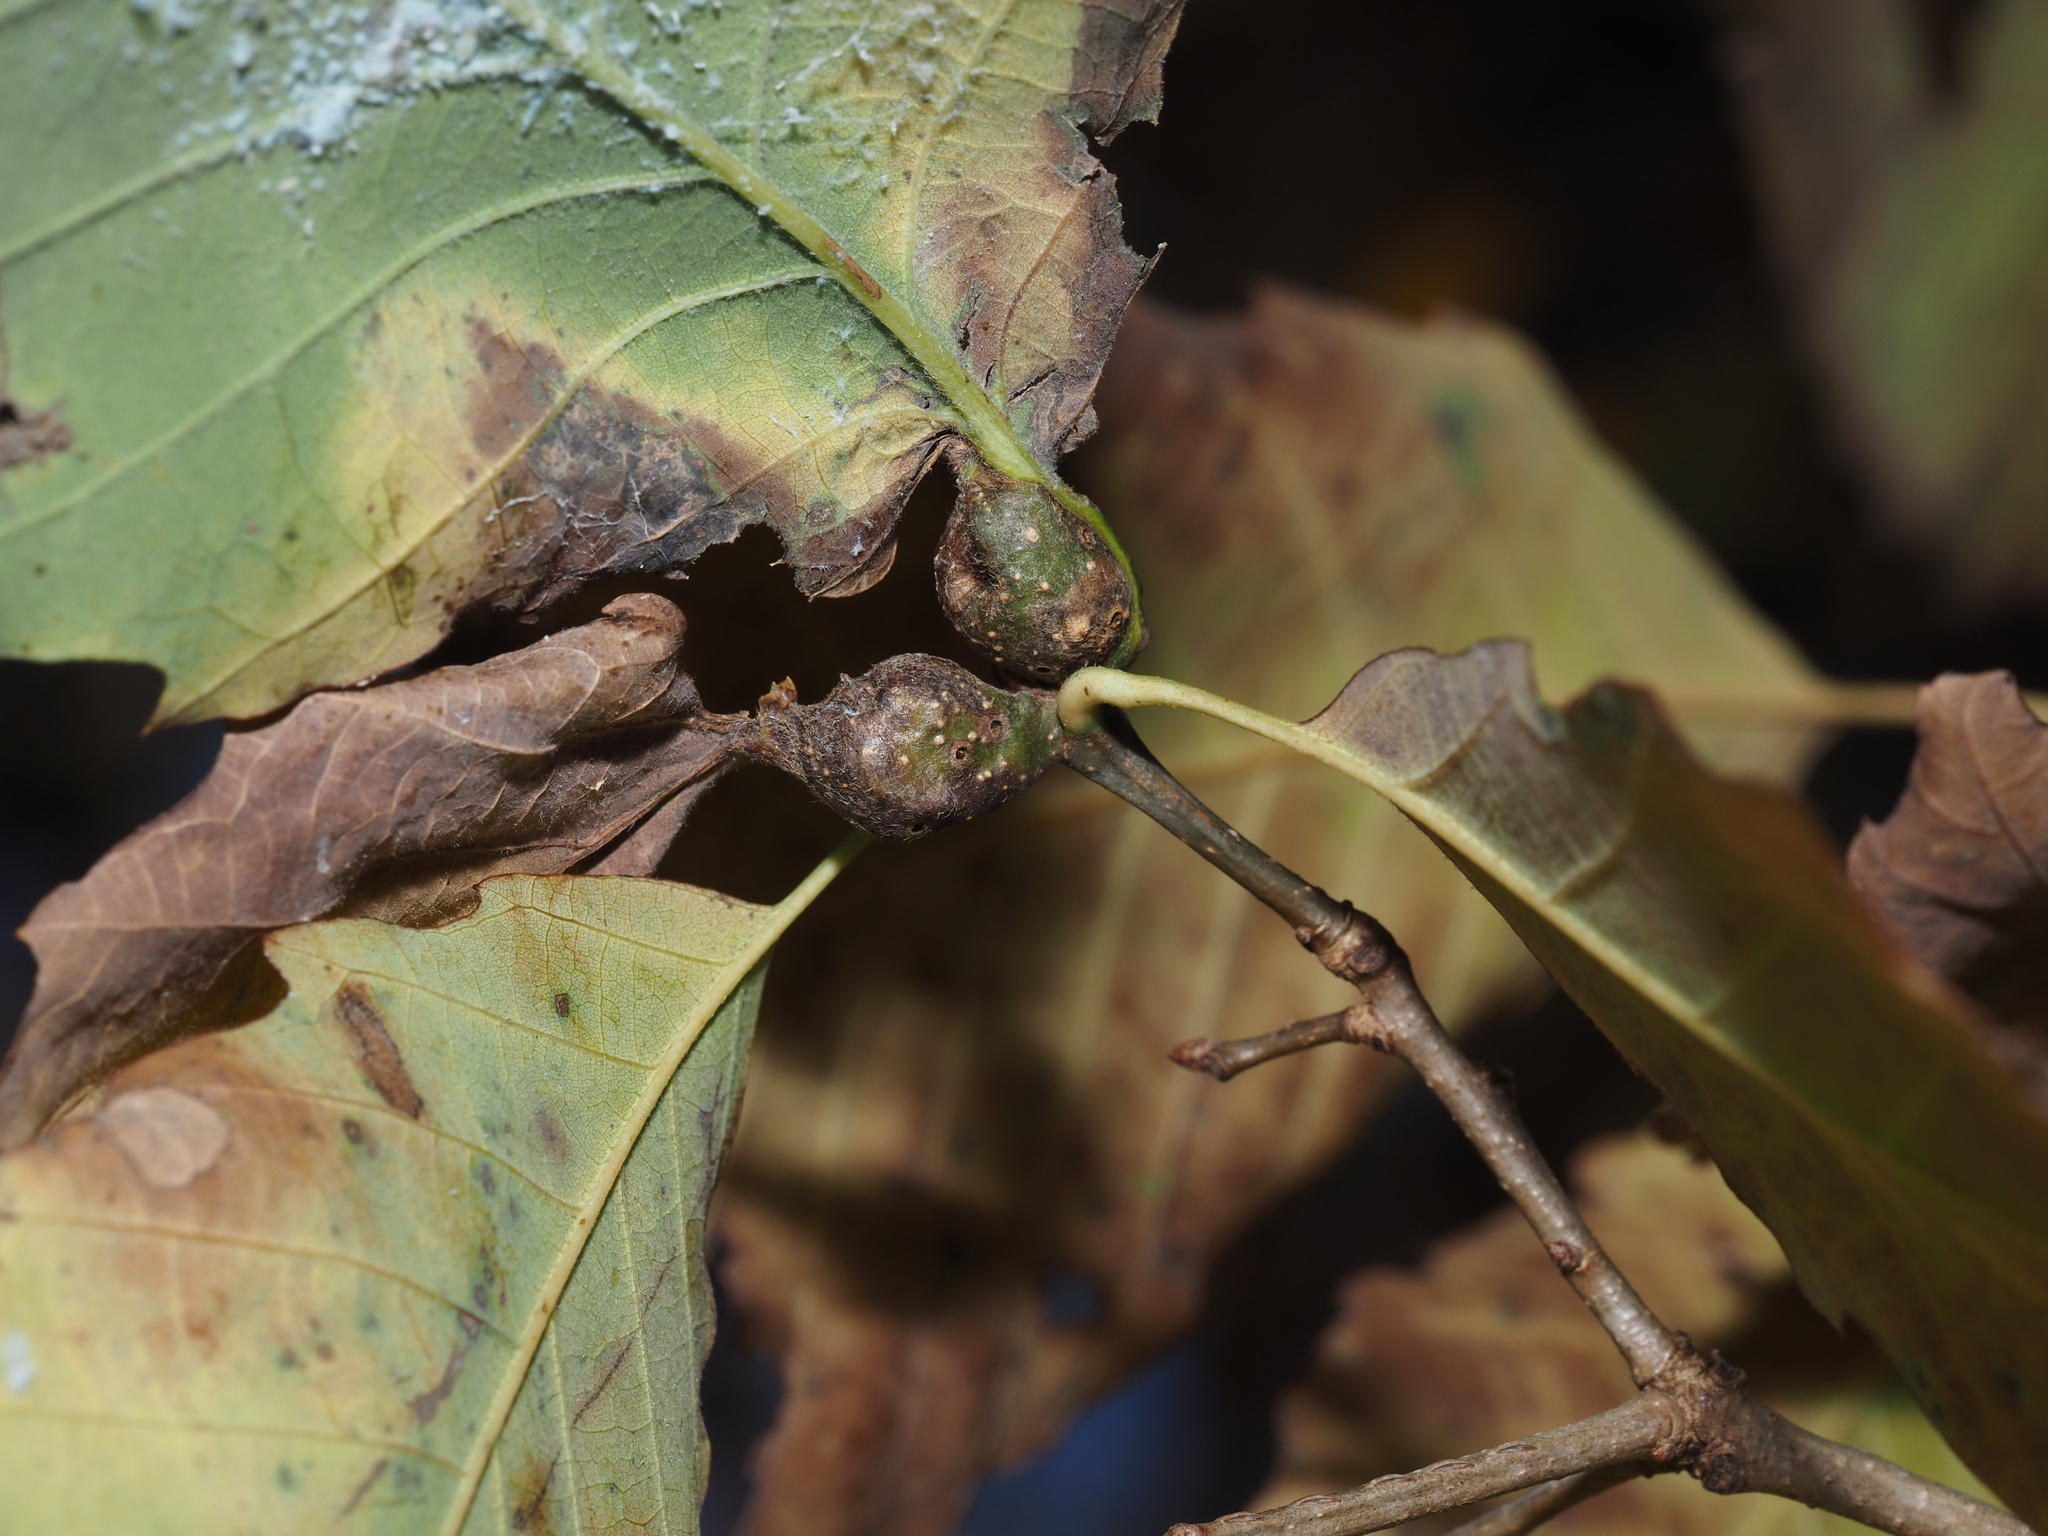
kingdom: Animalia
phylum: Arthropoda
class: Insecta
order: Hymenoptera
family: Cynipidae
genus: Andricus
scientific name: Andricus
